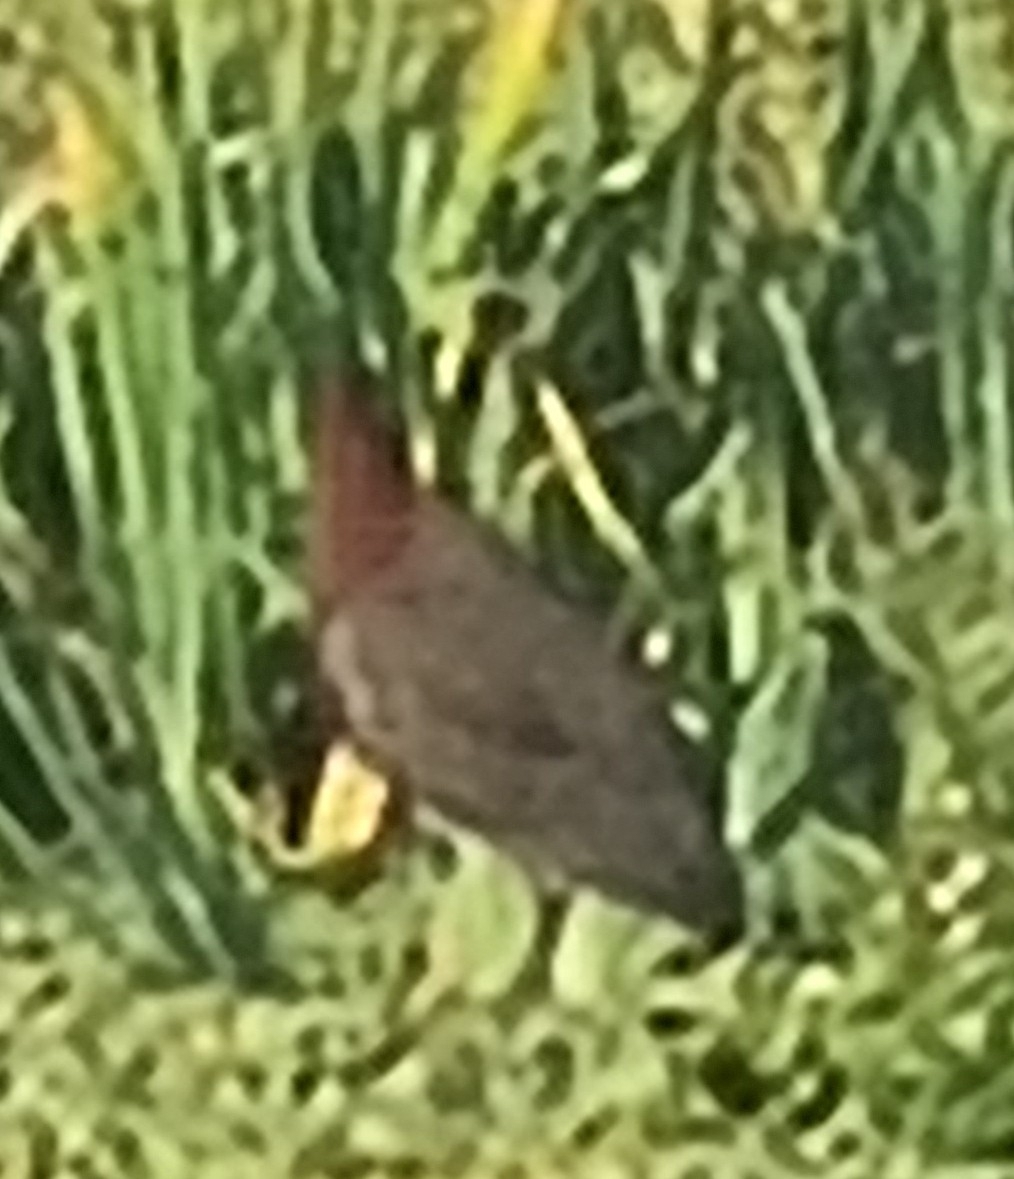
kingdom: Animalia
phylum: Chordata
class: Aves
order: Pelecaniformes
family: Ardeidae
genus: Tigrisoma
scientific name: Tigrisoma lineatum
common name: Rufescent tiger-heron
